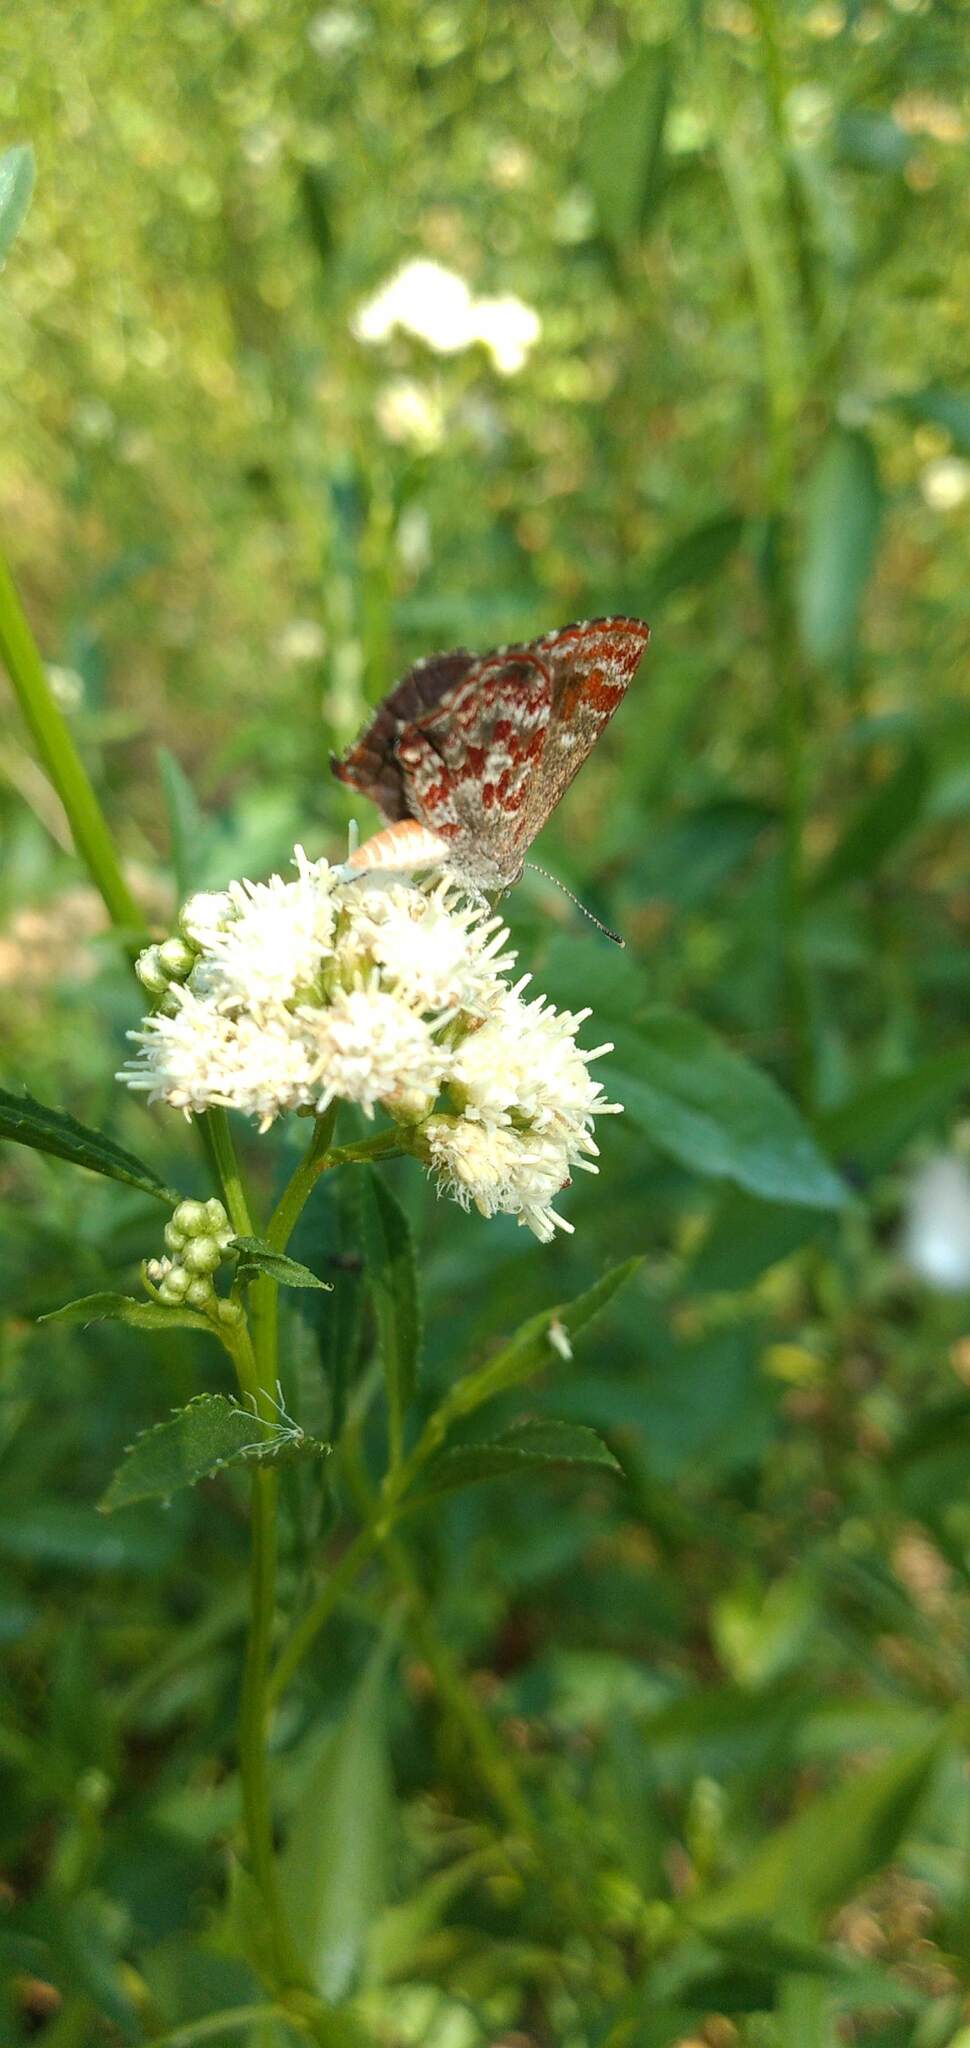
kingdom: Animalia
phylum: Arthropoda
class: Insecta
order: Lepidoptera
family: Lycaenidae
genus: Ministrymon
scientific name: Ministrymon
